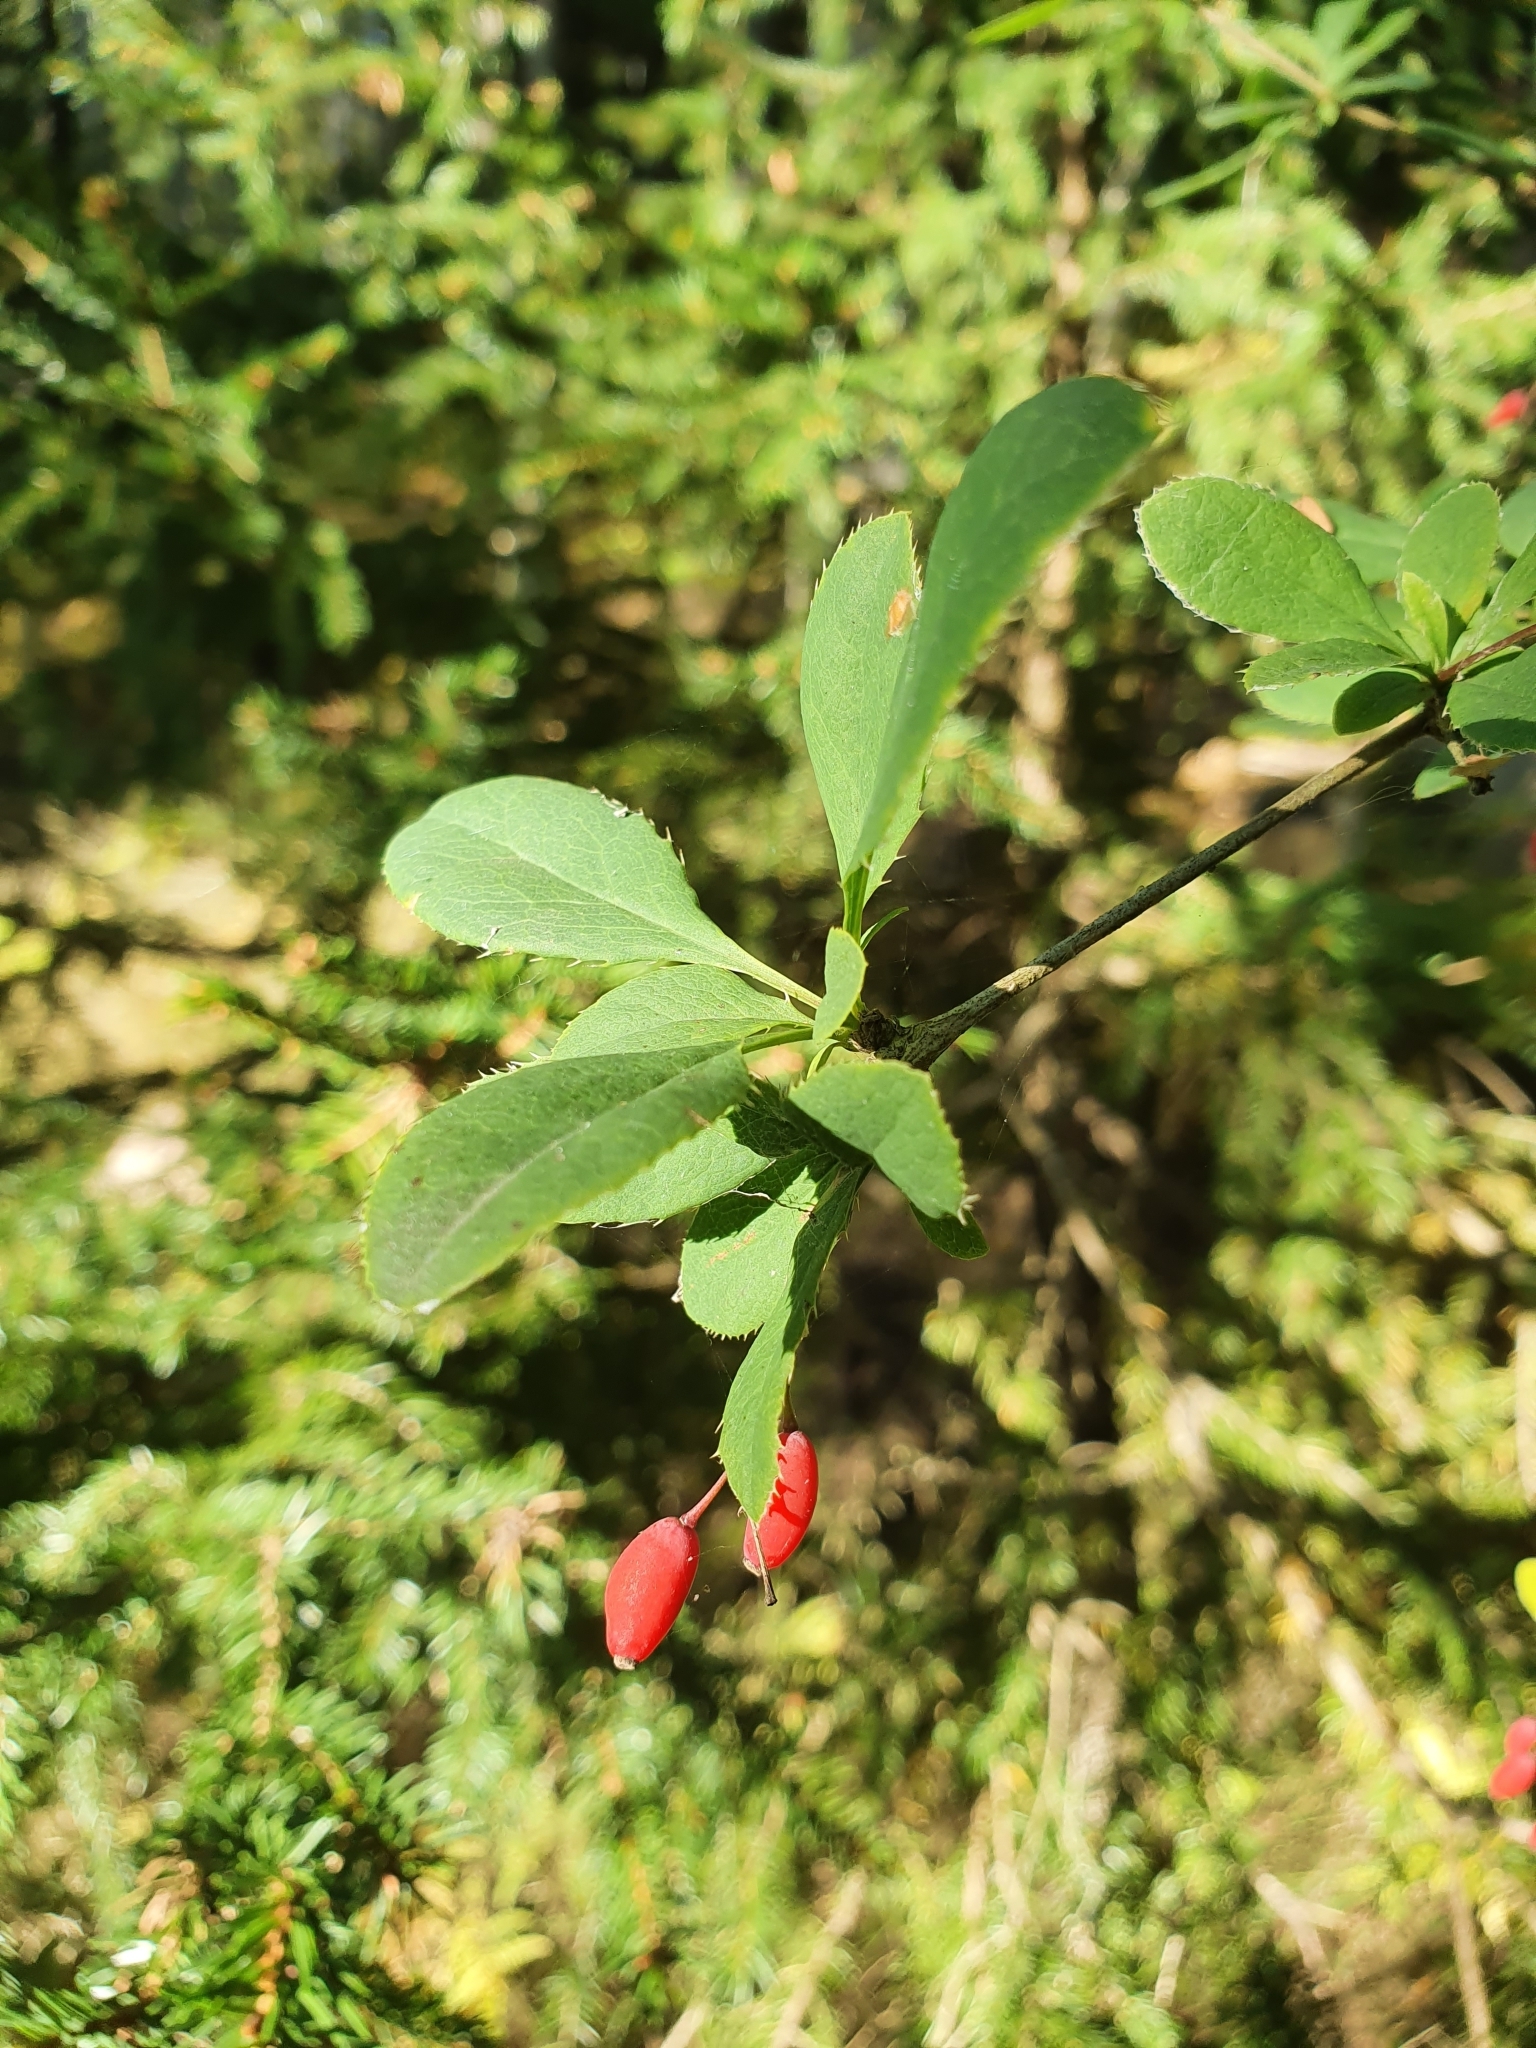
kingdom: Plantae
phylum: Tracheophyta
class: Magnoliopsida
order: Ranunculales
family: Berberidaceae
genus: Berberis
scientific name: Berberis vulgaris
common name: Barberry
